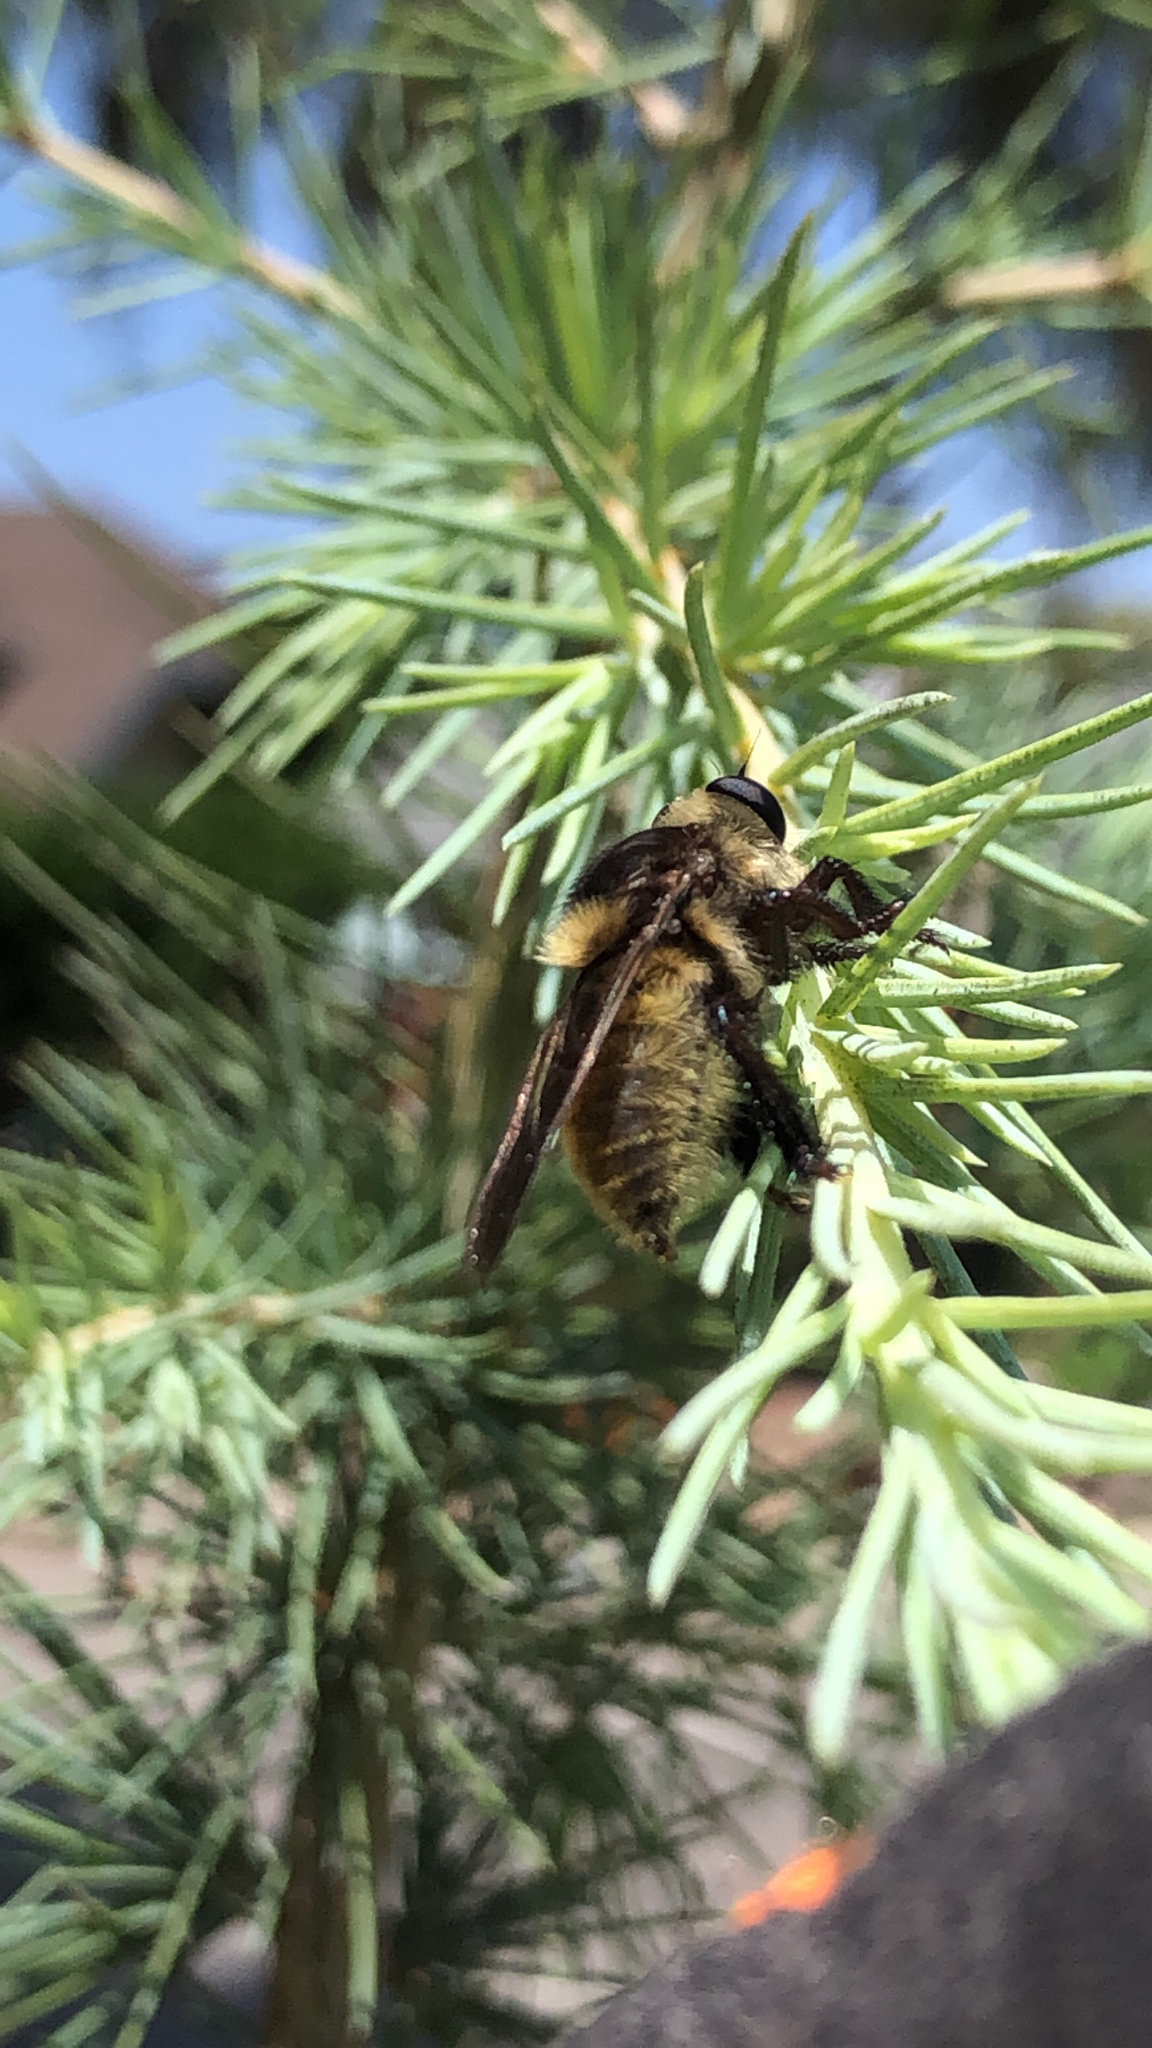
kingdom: Animalia
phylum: Arthropoda
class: Insecta
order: Diptera
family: Asilidae
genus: Mallophora
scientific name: Mallophora fautrix
